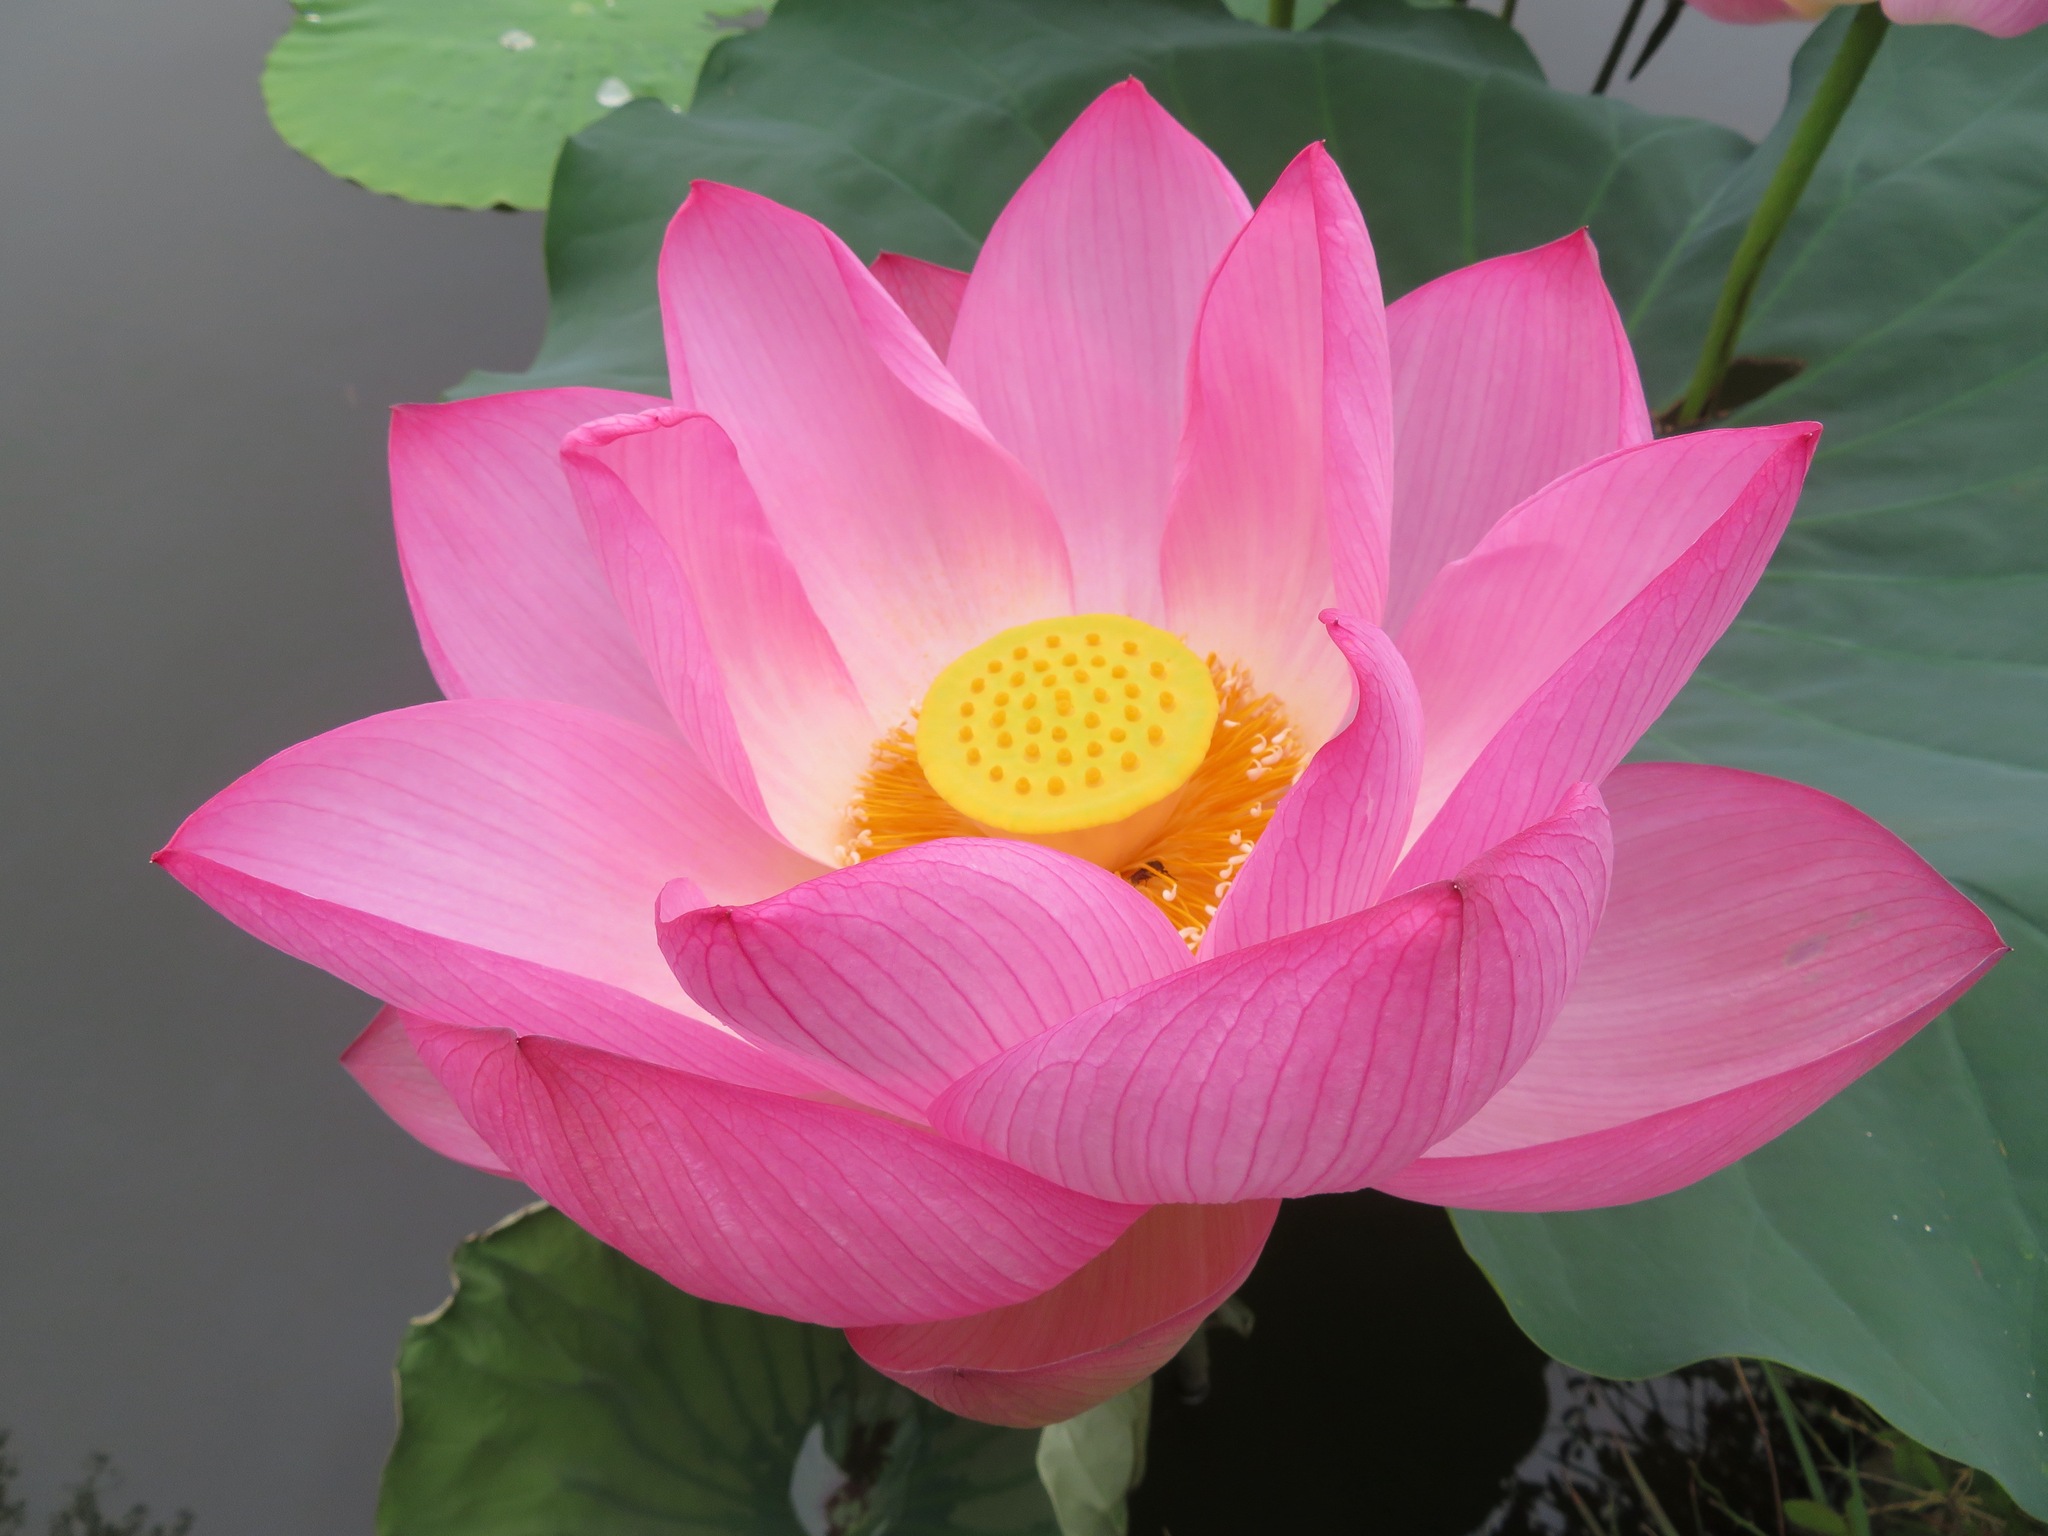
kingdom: Plantae
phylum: Tracheophyta
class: Magnoliopsida
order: Proteales
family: Nelumbonaceae
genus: Nelumbo
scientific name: Nelumbo nucifera
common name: Sacred lotus
